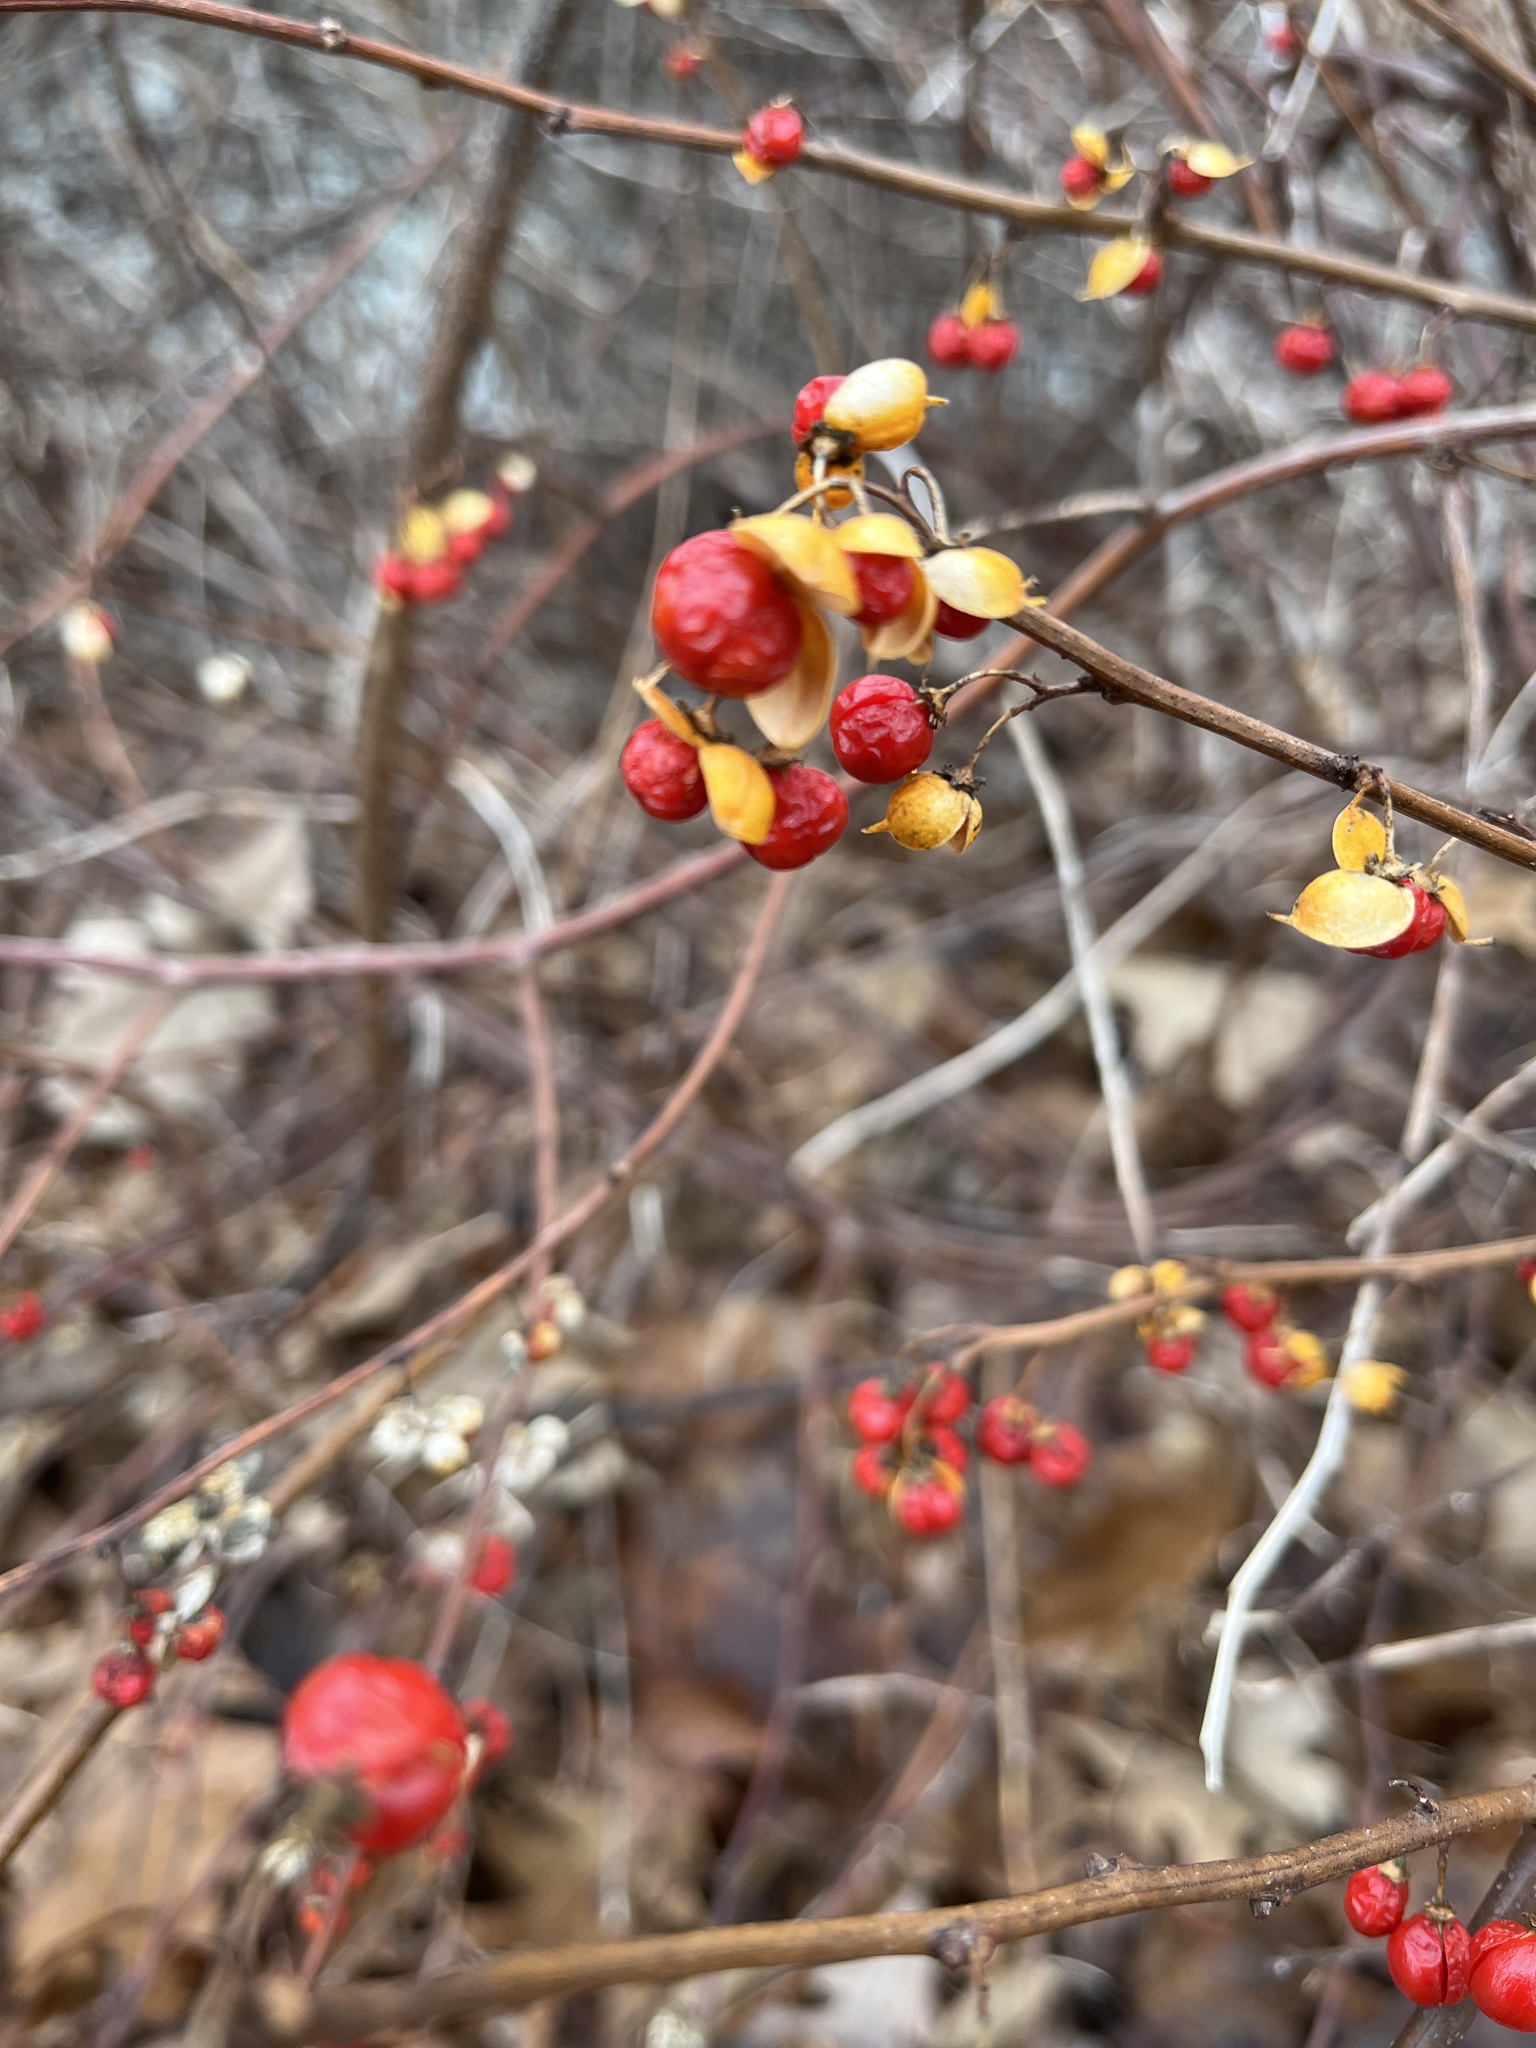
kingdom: Plantae
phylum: Tracheophyta
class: Magnoliopsida
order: Celastrales
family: Celastraceae
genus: Celastrus
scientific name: Celastrus orbiculatus
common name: Oriental bittersweet
